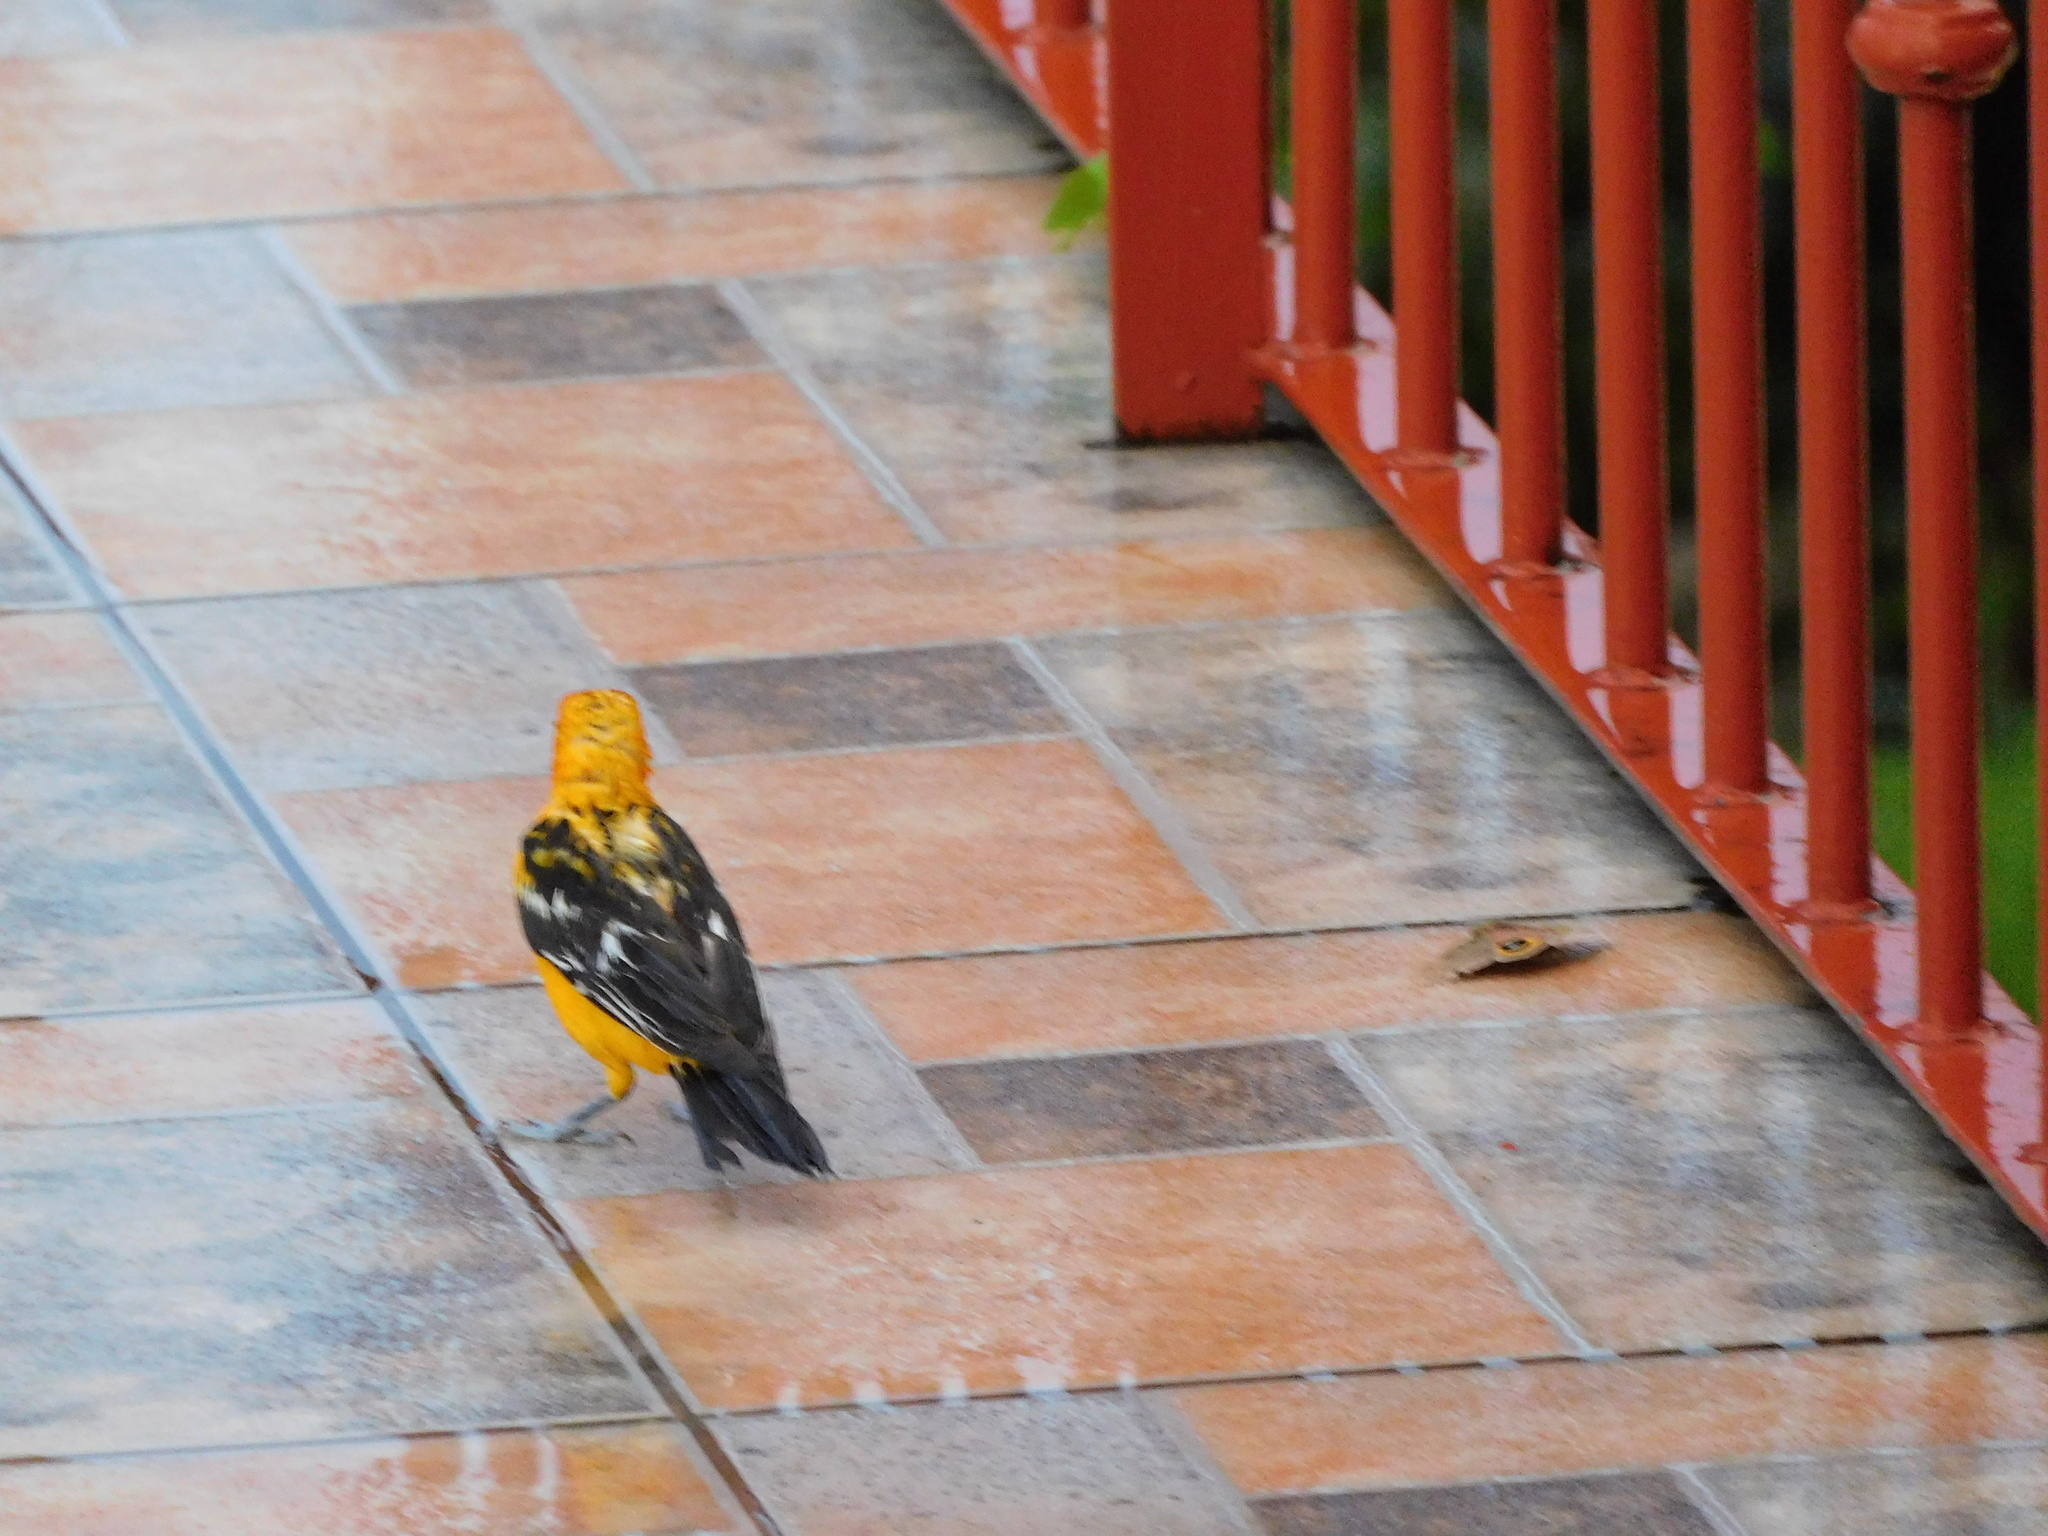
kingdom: Animalia
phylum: Chordata
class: Aves
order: Passeriformes
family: Icteridae
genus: Icterus
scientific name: Icterus pustulatus
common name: Streak-backed oriole
